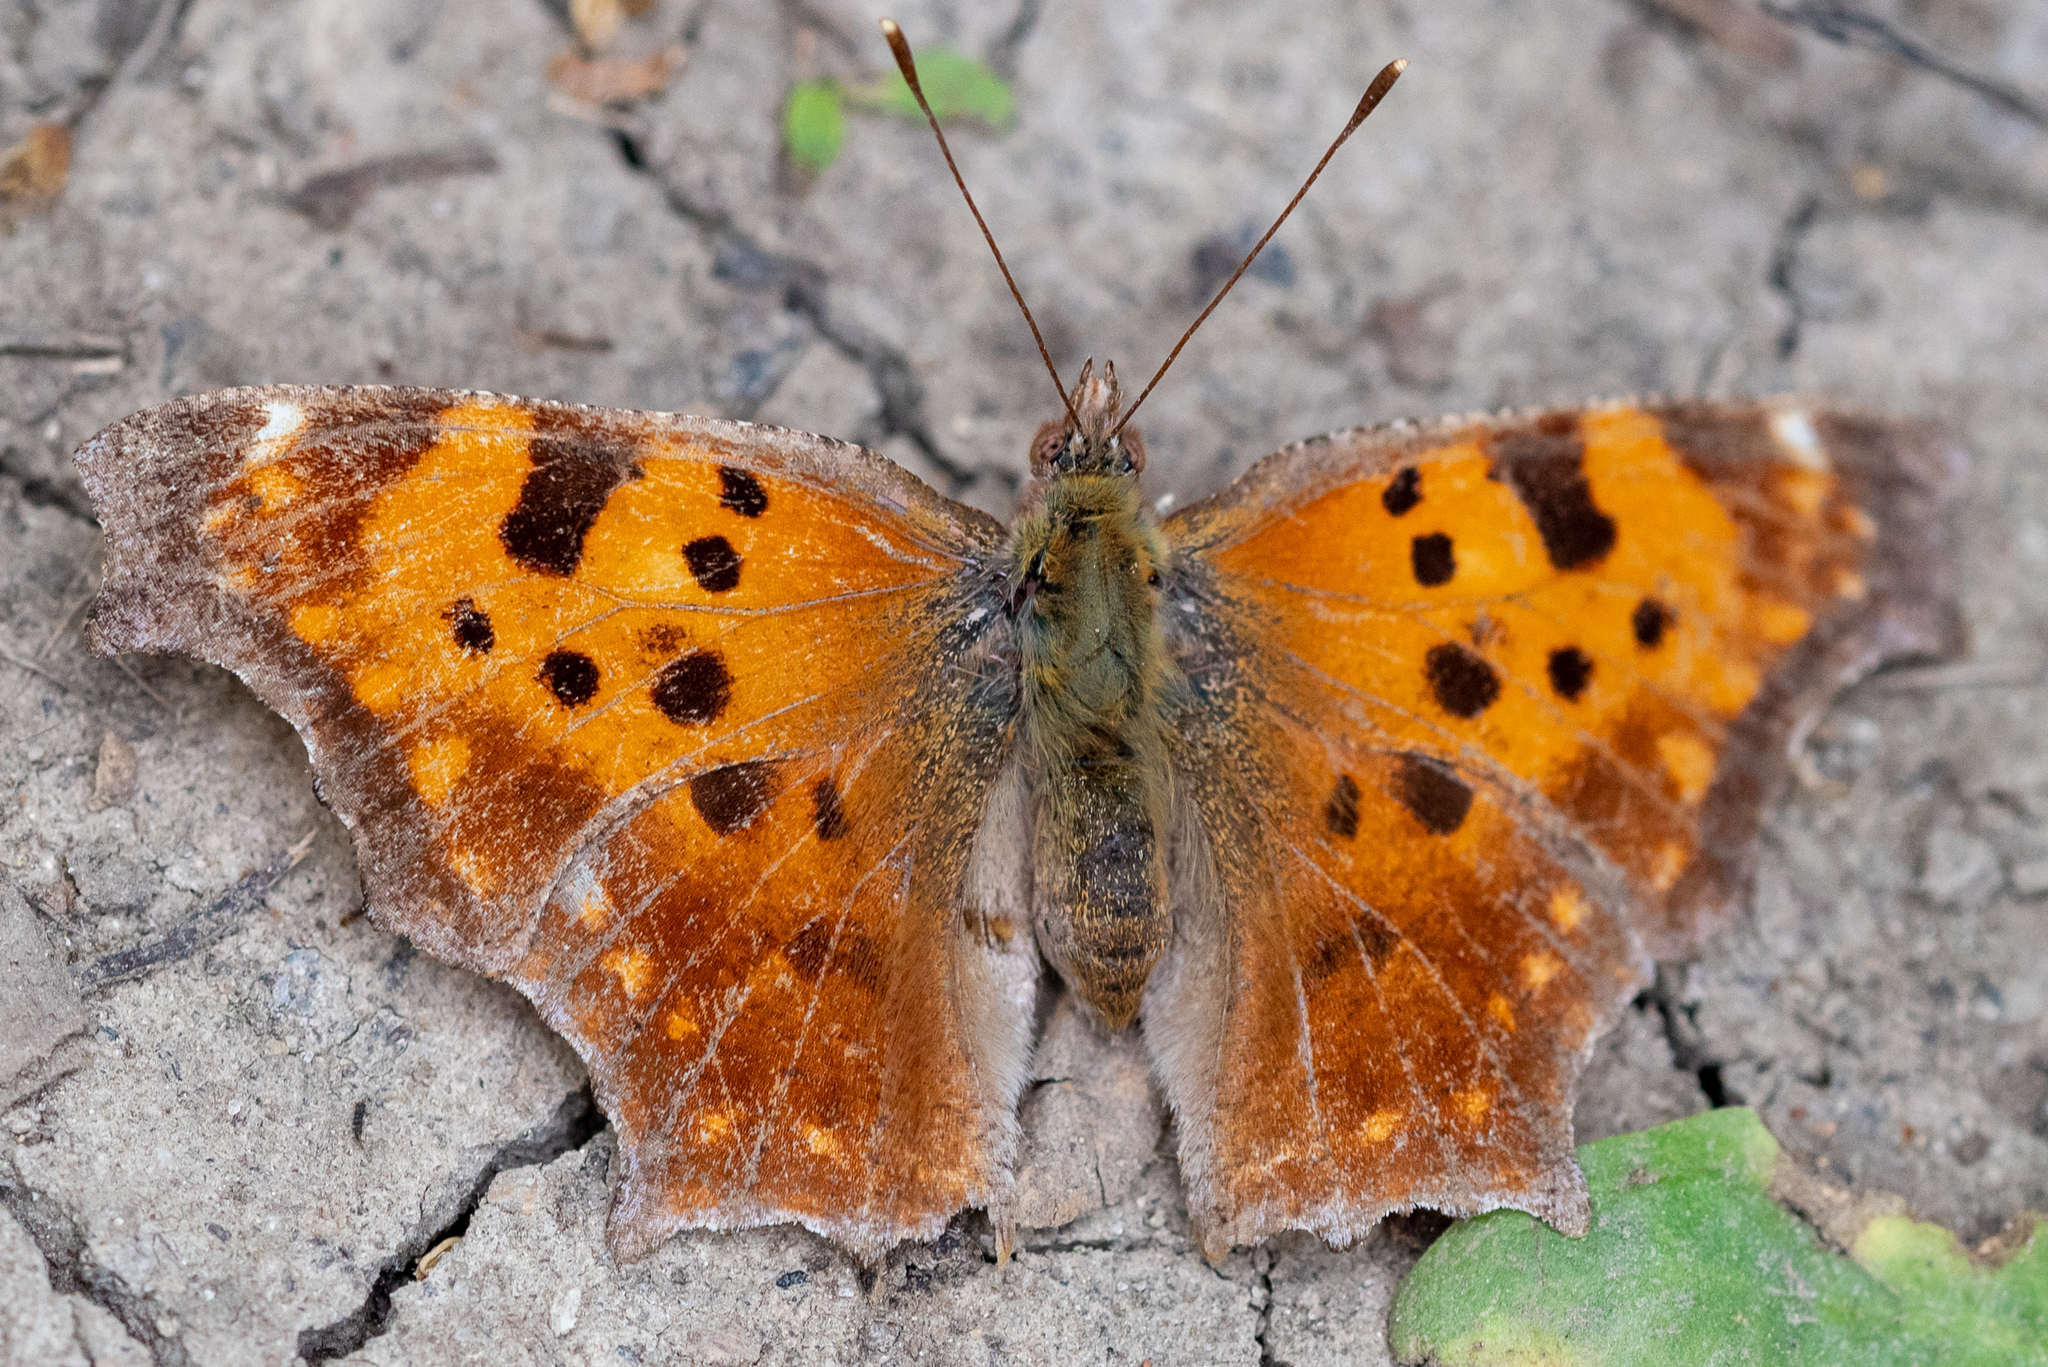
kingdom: Animalia
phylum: Arthropoda
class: Insecta
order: Lepidoptera
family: Nymphalidae
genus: Polygonia
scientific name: Polygonia comma
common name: Eastern comma
